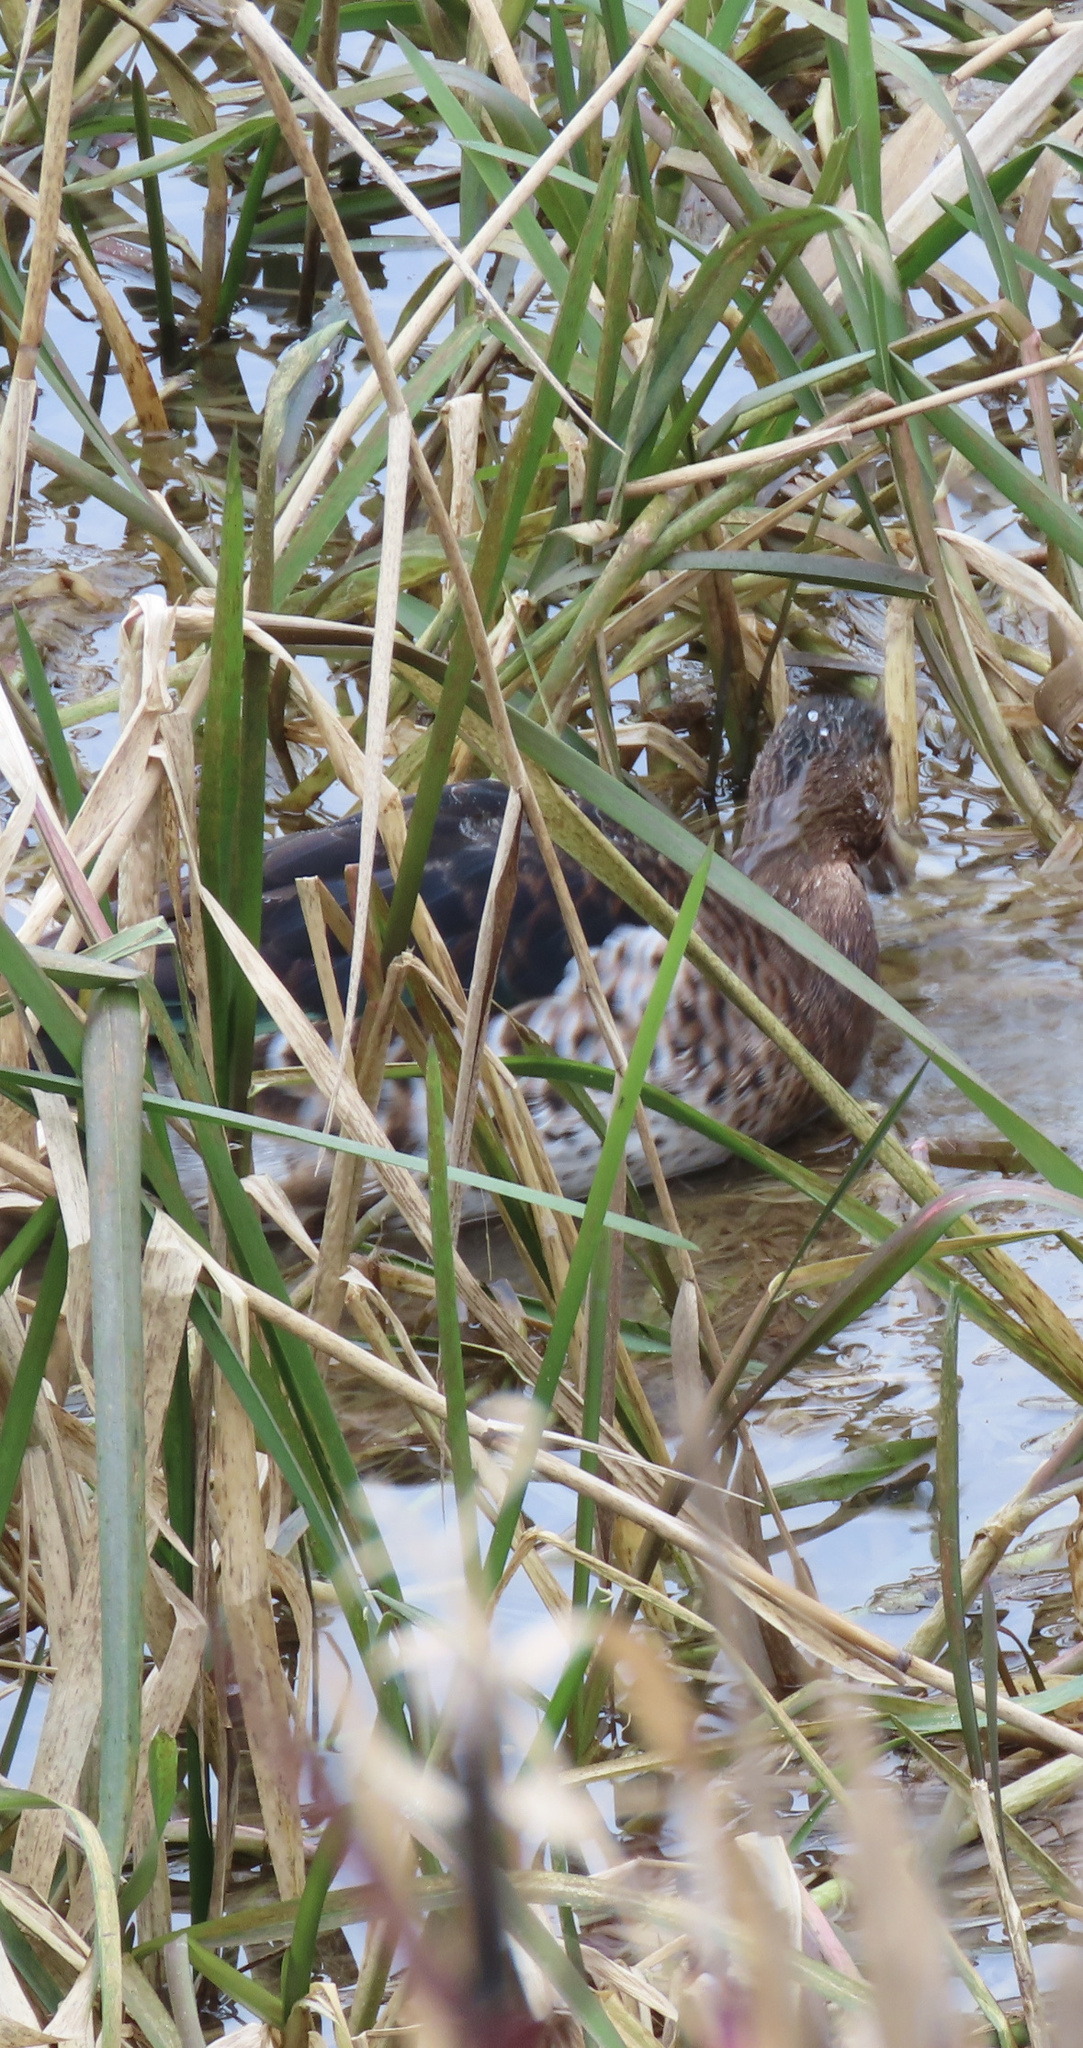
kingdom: Animalia
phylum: Chordata
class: Aves
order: Anseriformes
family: Anatidae
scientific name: Anatidae
